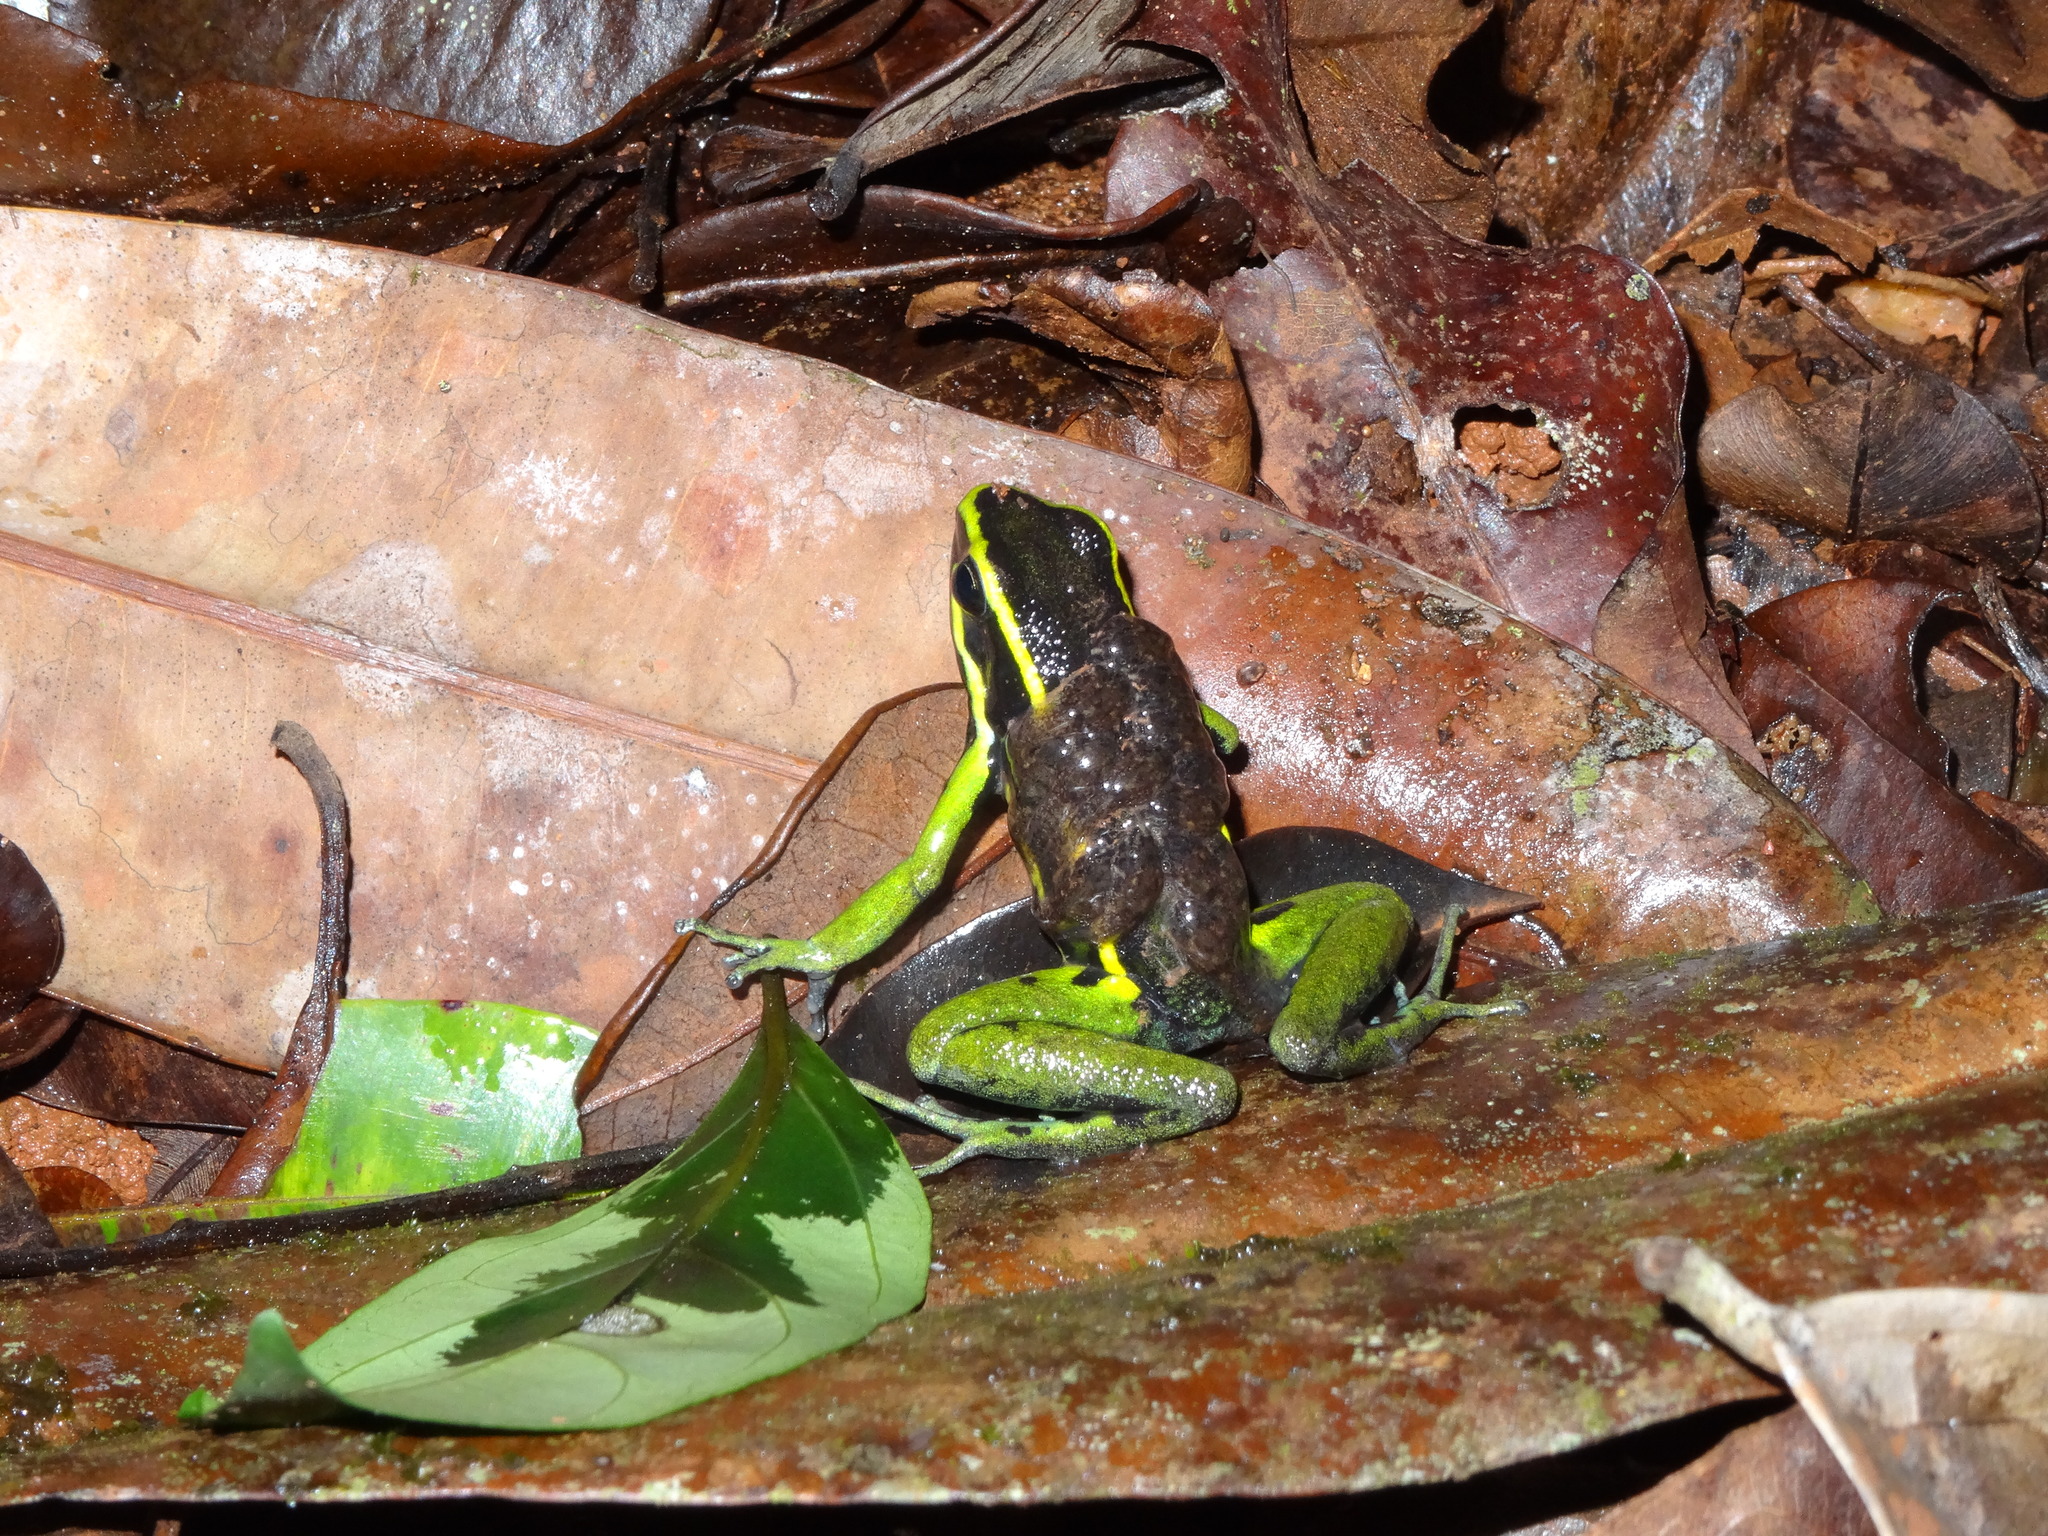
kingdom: Animalia
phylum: Chordata
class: Amphibia
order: Anura
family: Dendrobatidae
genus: Ameerega
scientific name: Ameerega trivittata
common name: Three-striped arrow-poison frog
